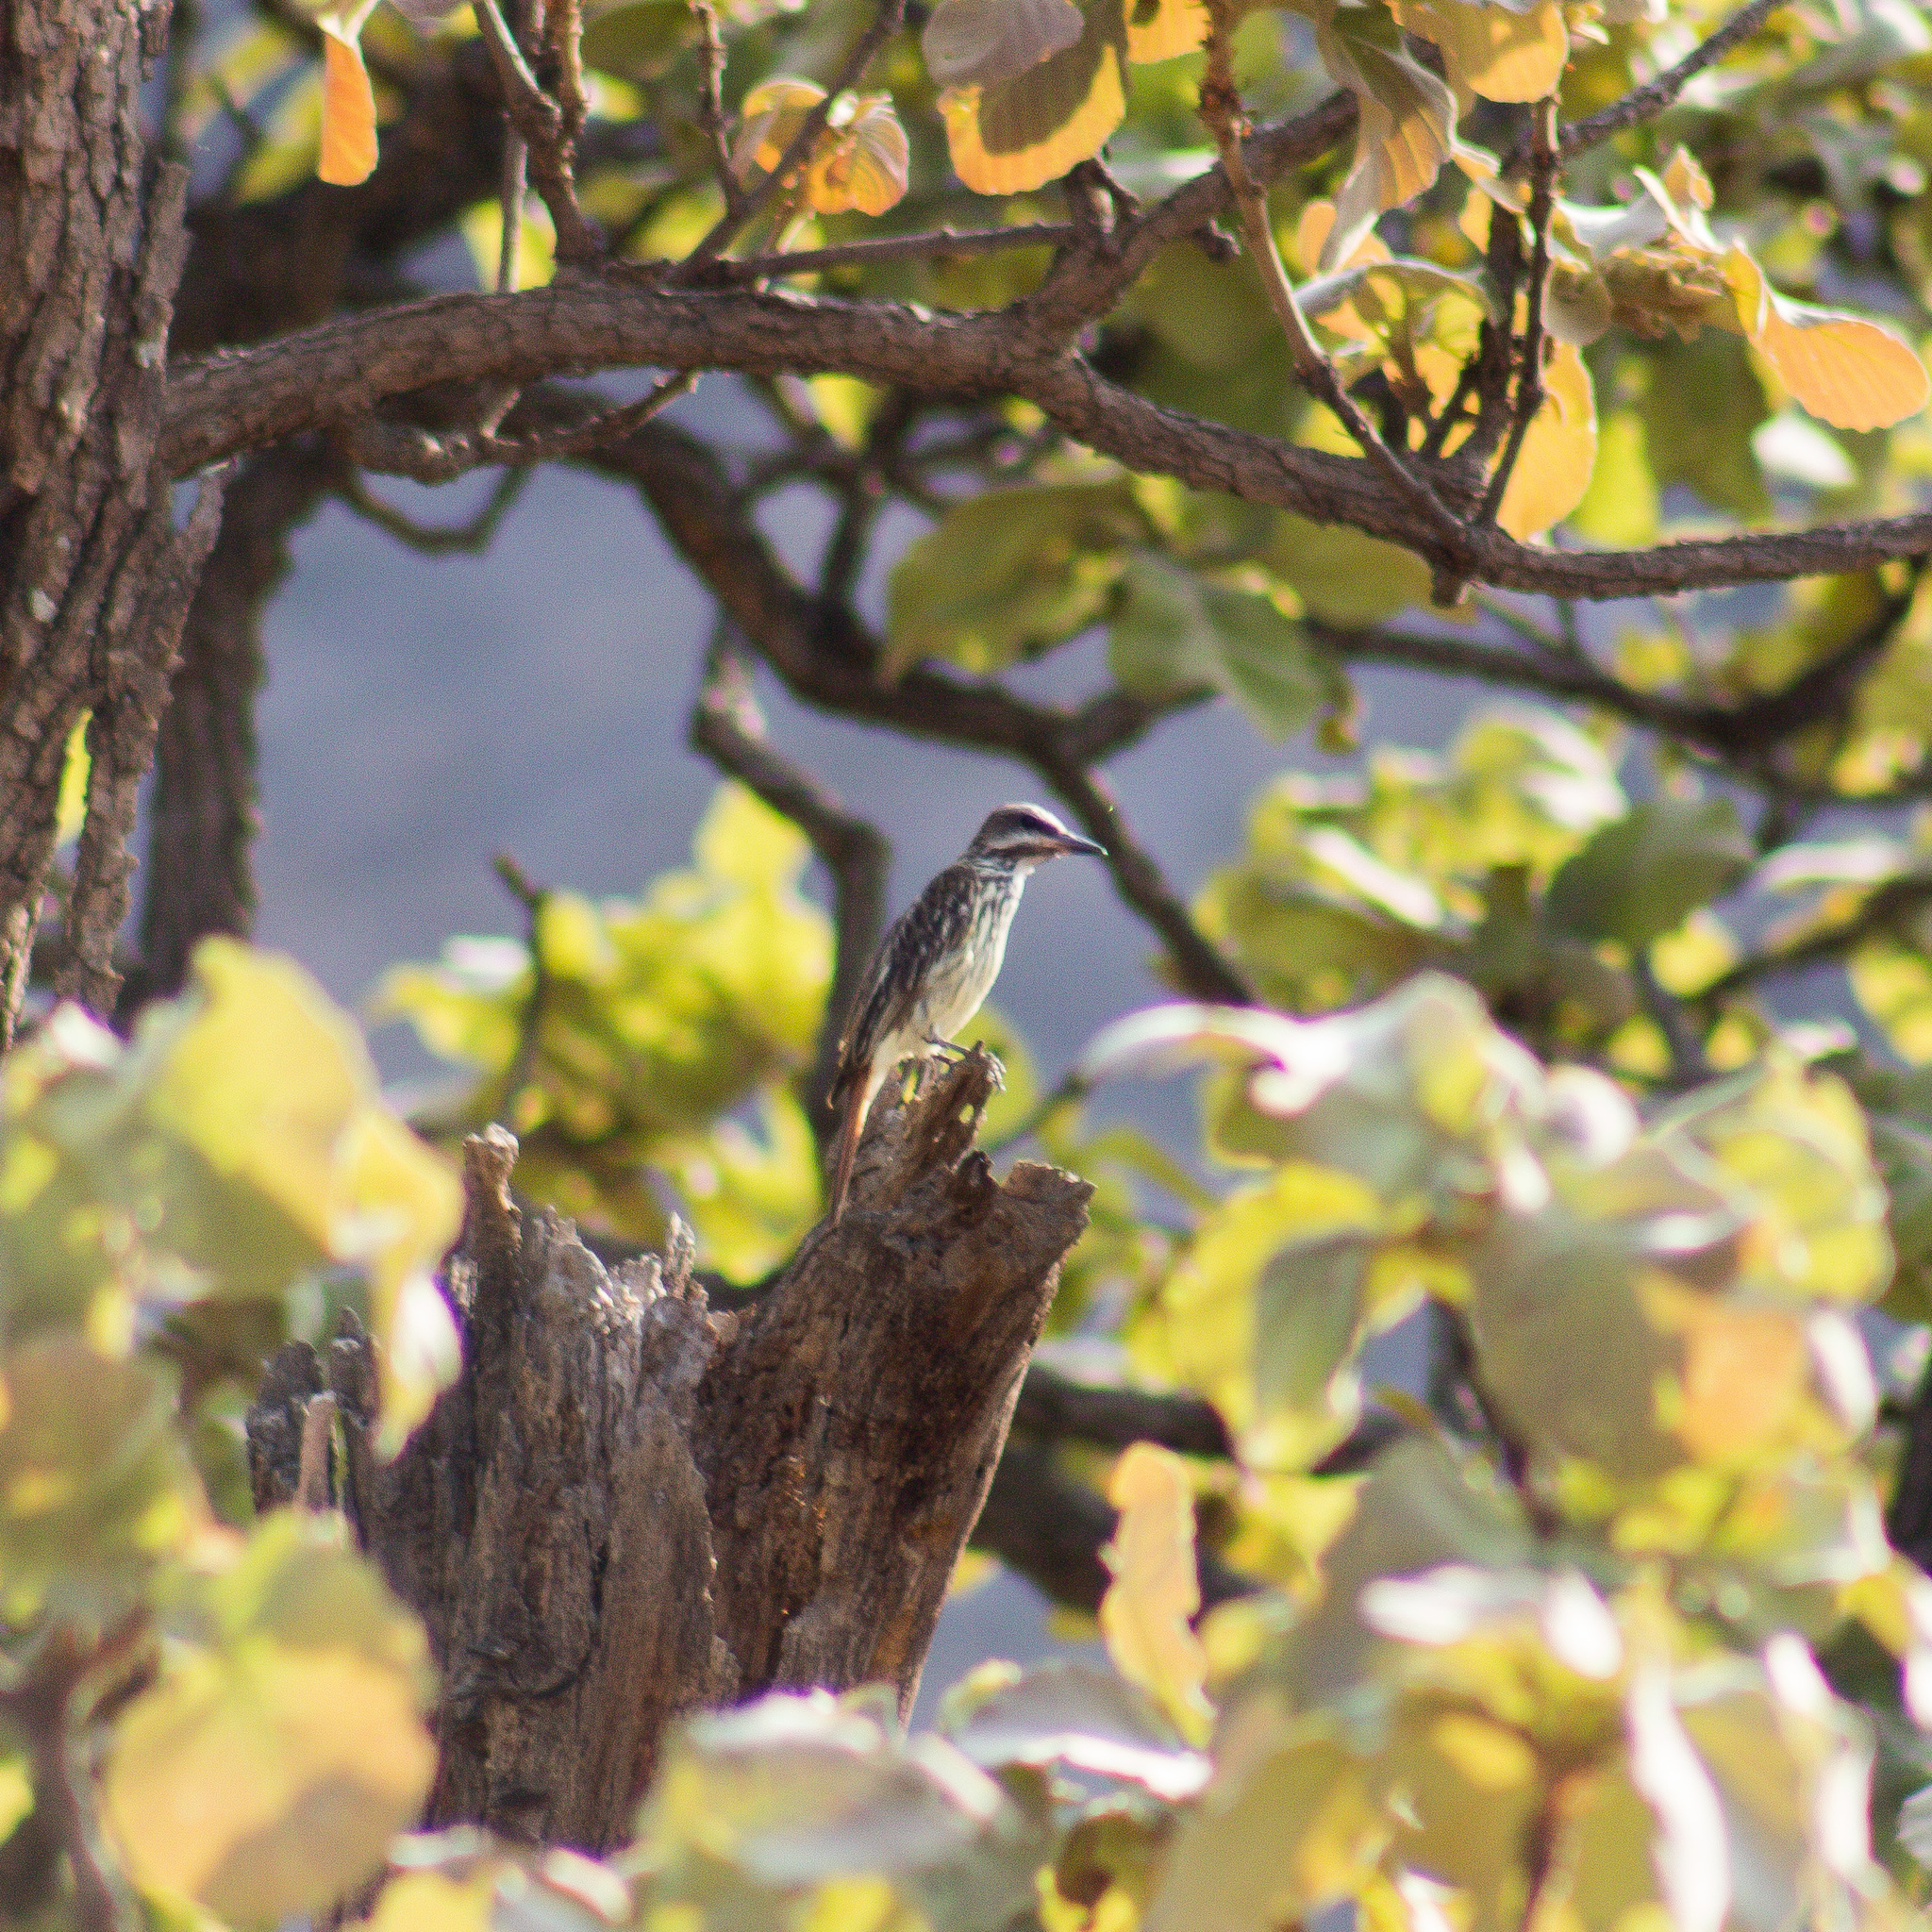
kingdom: Animalia
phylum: Chordata
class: Aves
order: Passeriformes
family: Tyrannidae
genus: Myiodynastes
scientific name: Myiodynastes luteiventris
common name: Sulphur-bellied flycatcher
